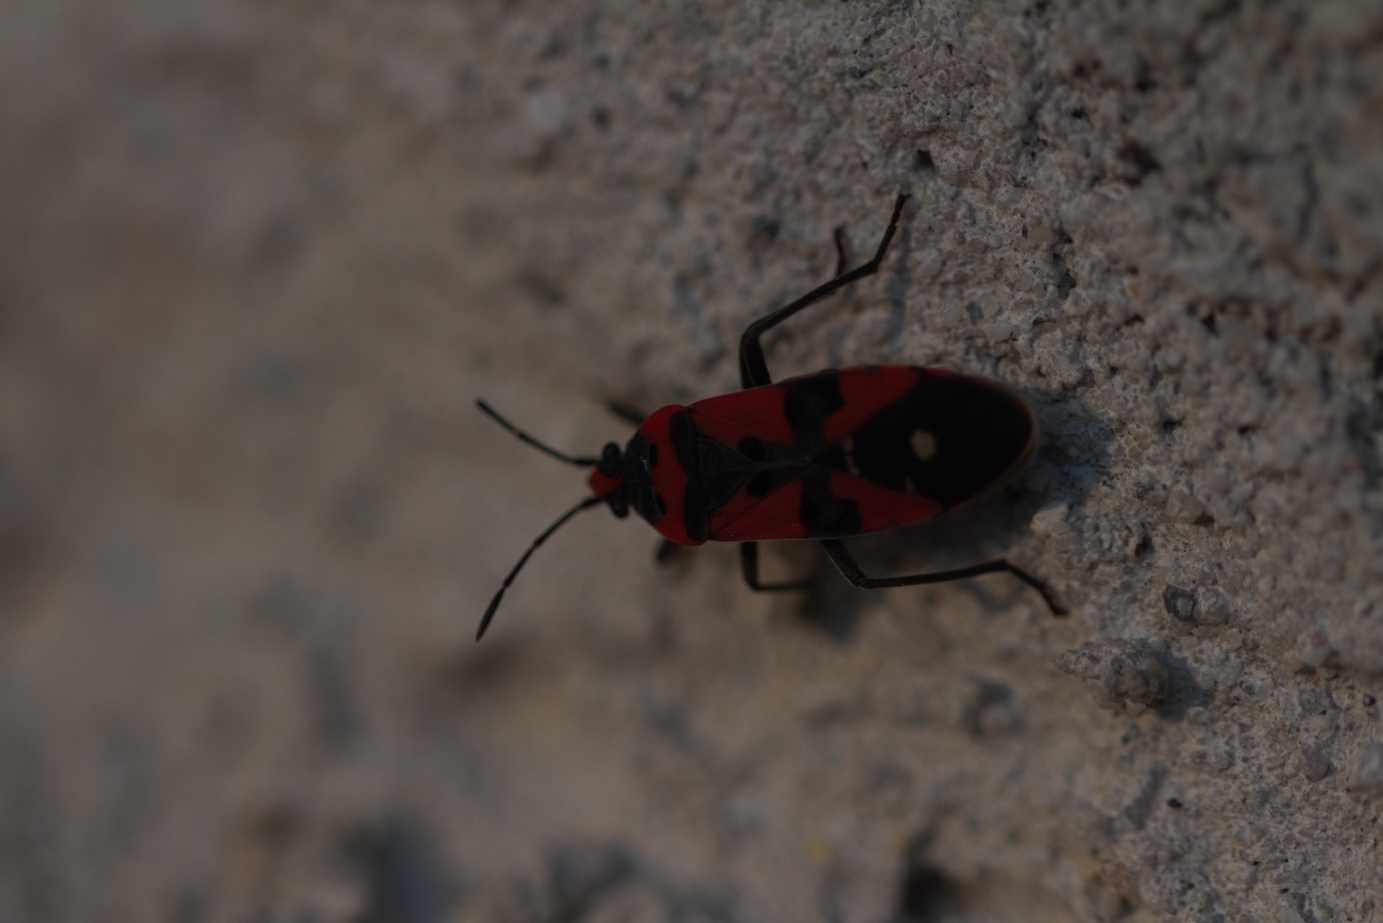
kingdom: Animalia
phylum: Arthropoda
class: Insecta
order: Hemiptera
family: Lygaeidae
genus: Lygaeus
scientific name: Lygaeus equestris
